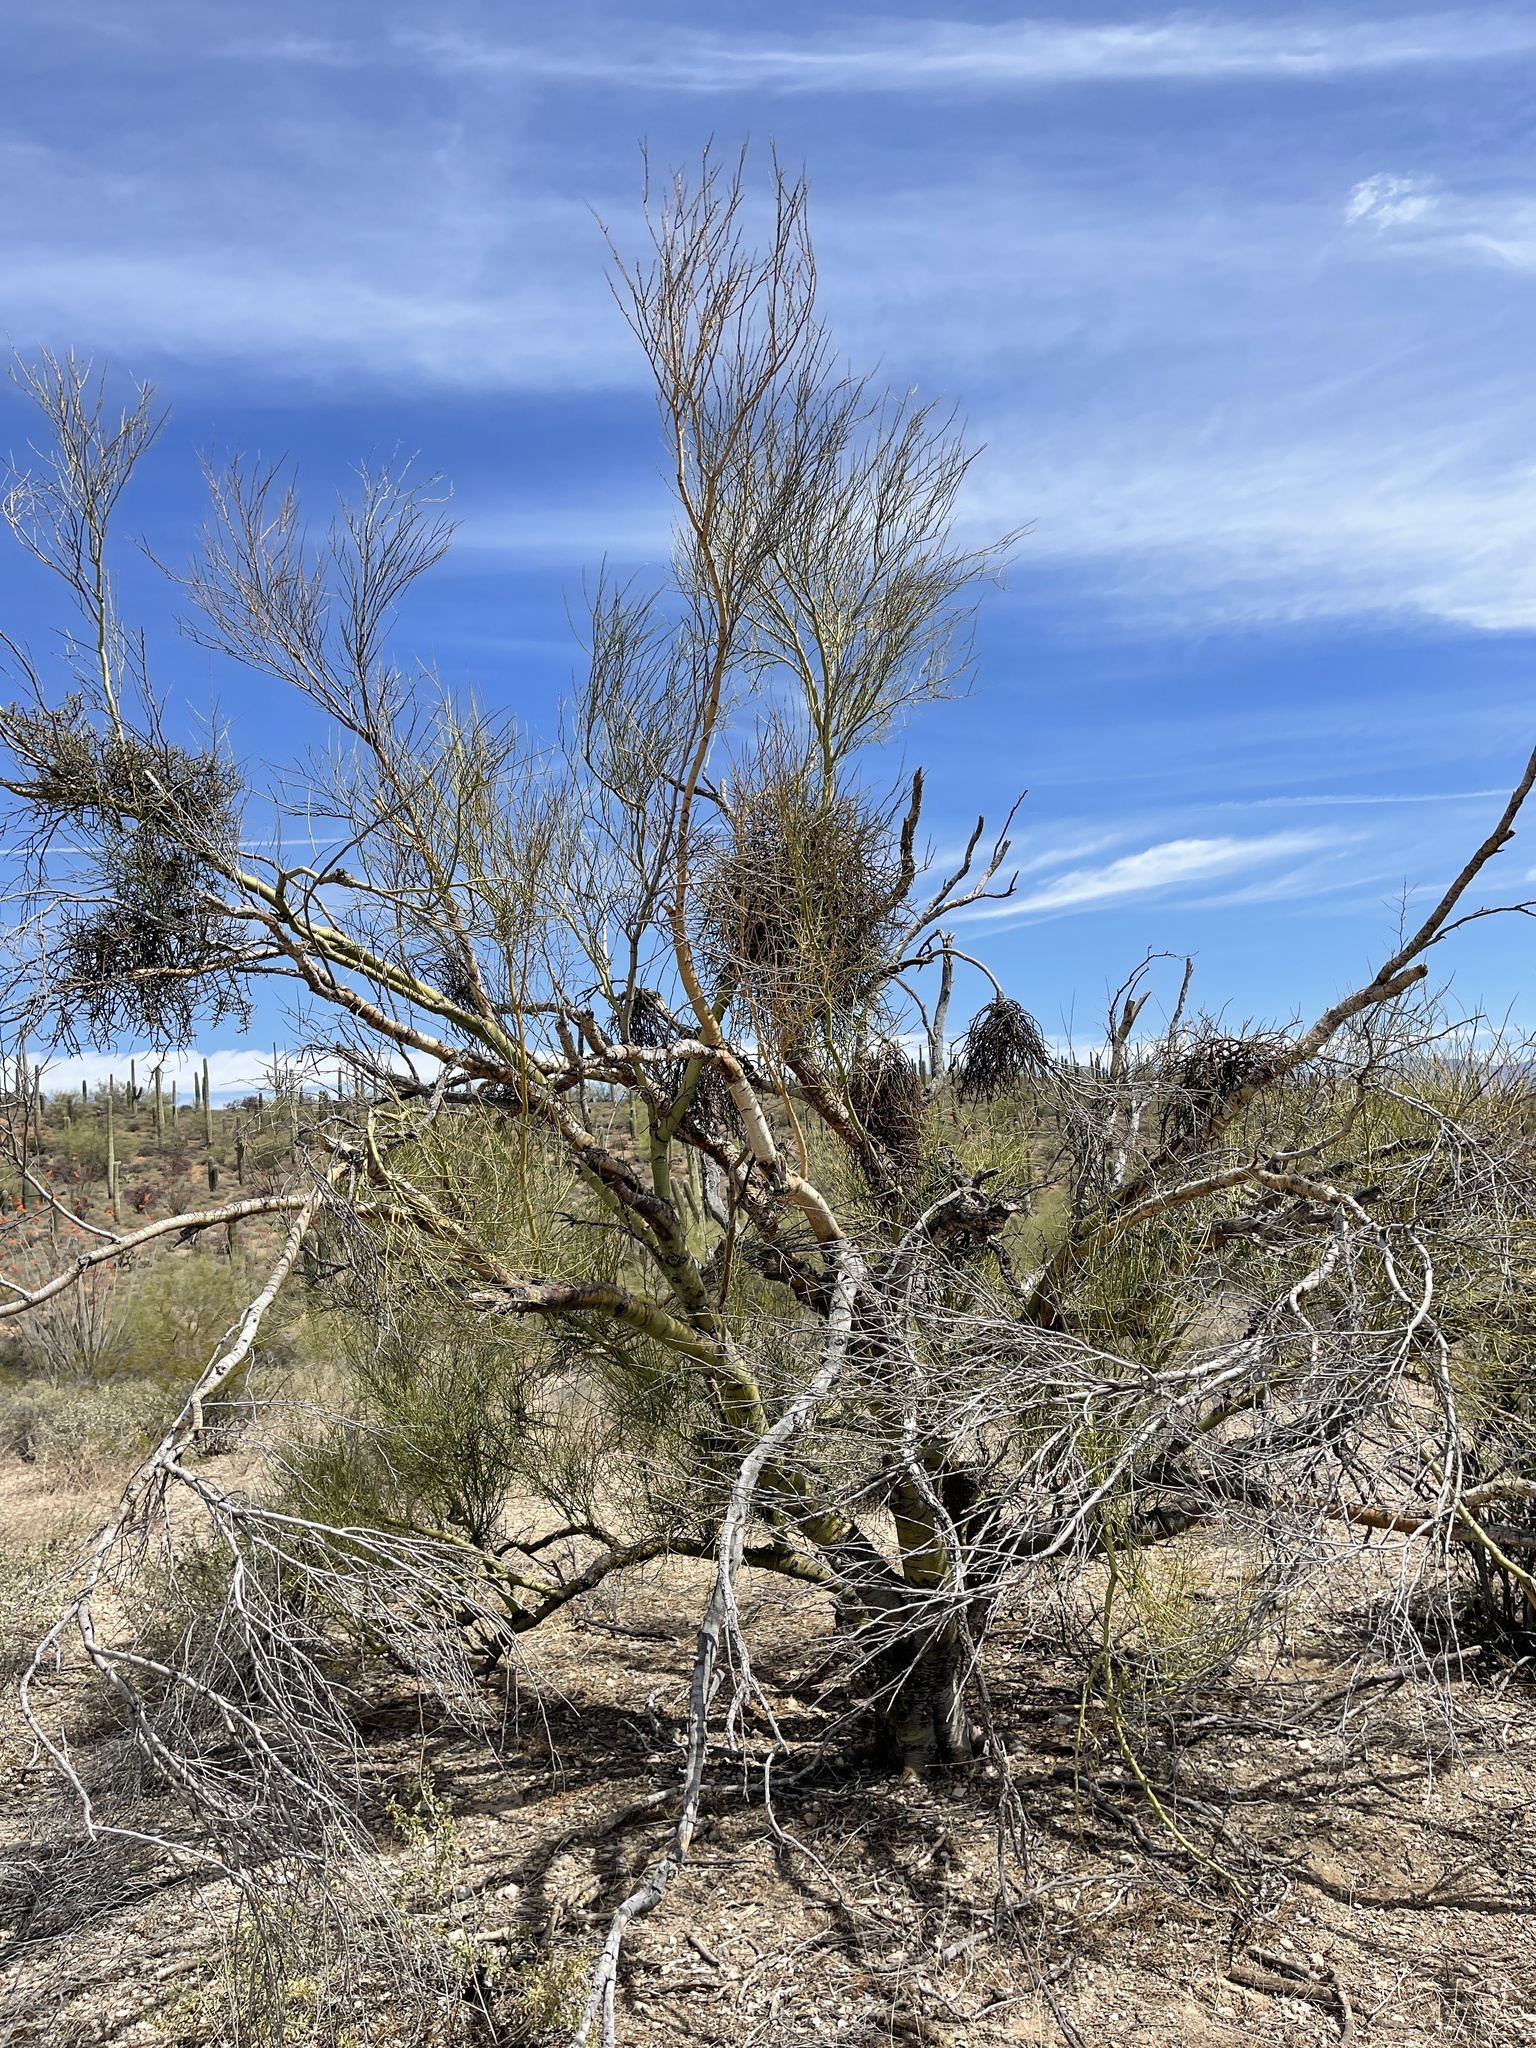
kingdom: Plantae
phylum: Tracheophyta
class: Magnoliopsida
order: Fabales
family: Fabaceae
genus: Parkinsonia
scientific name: Parkinsonia microphylla
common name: Yellow paloverde
